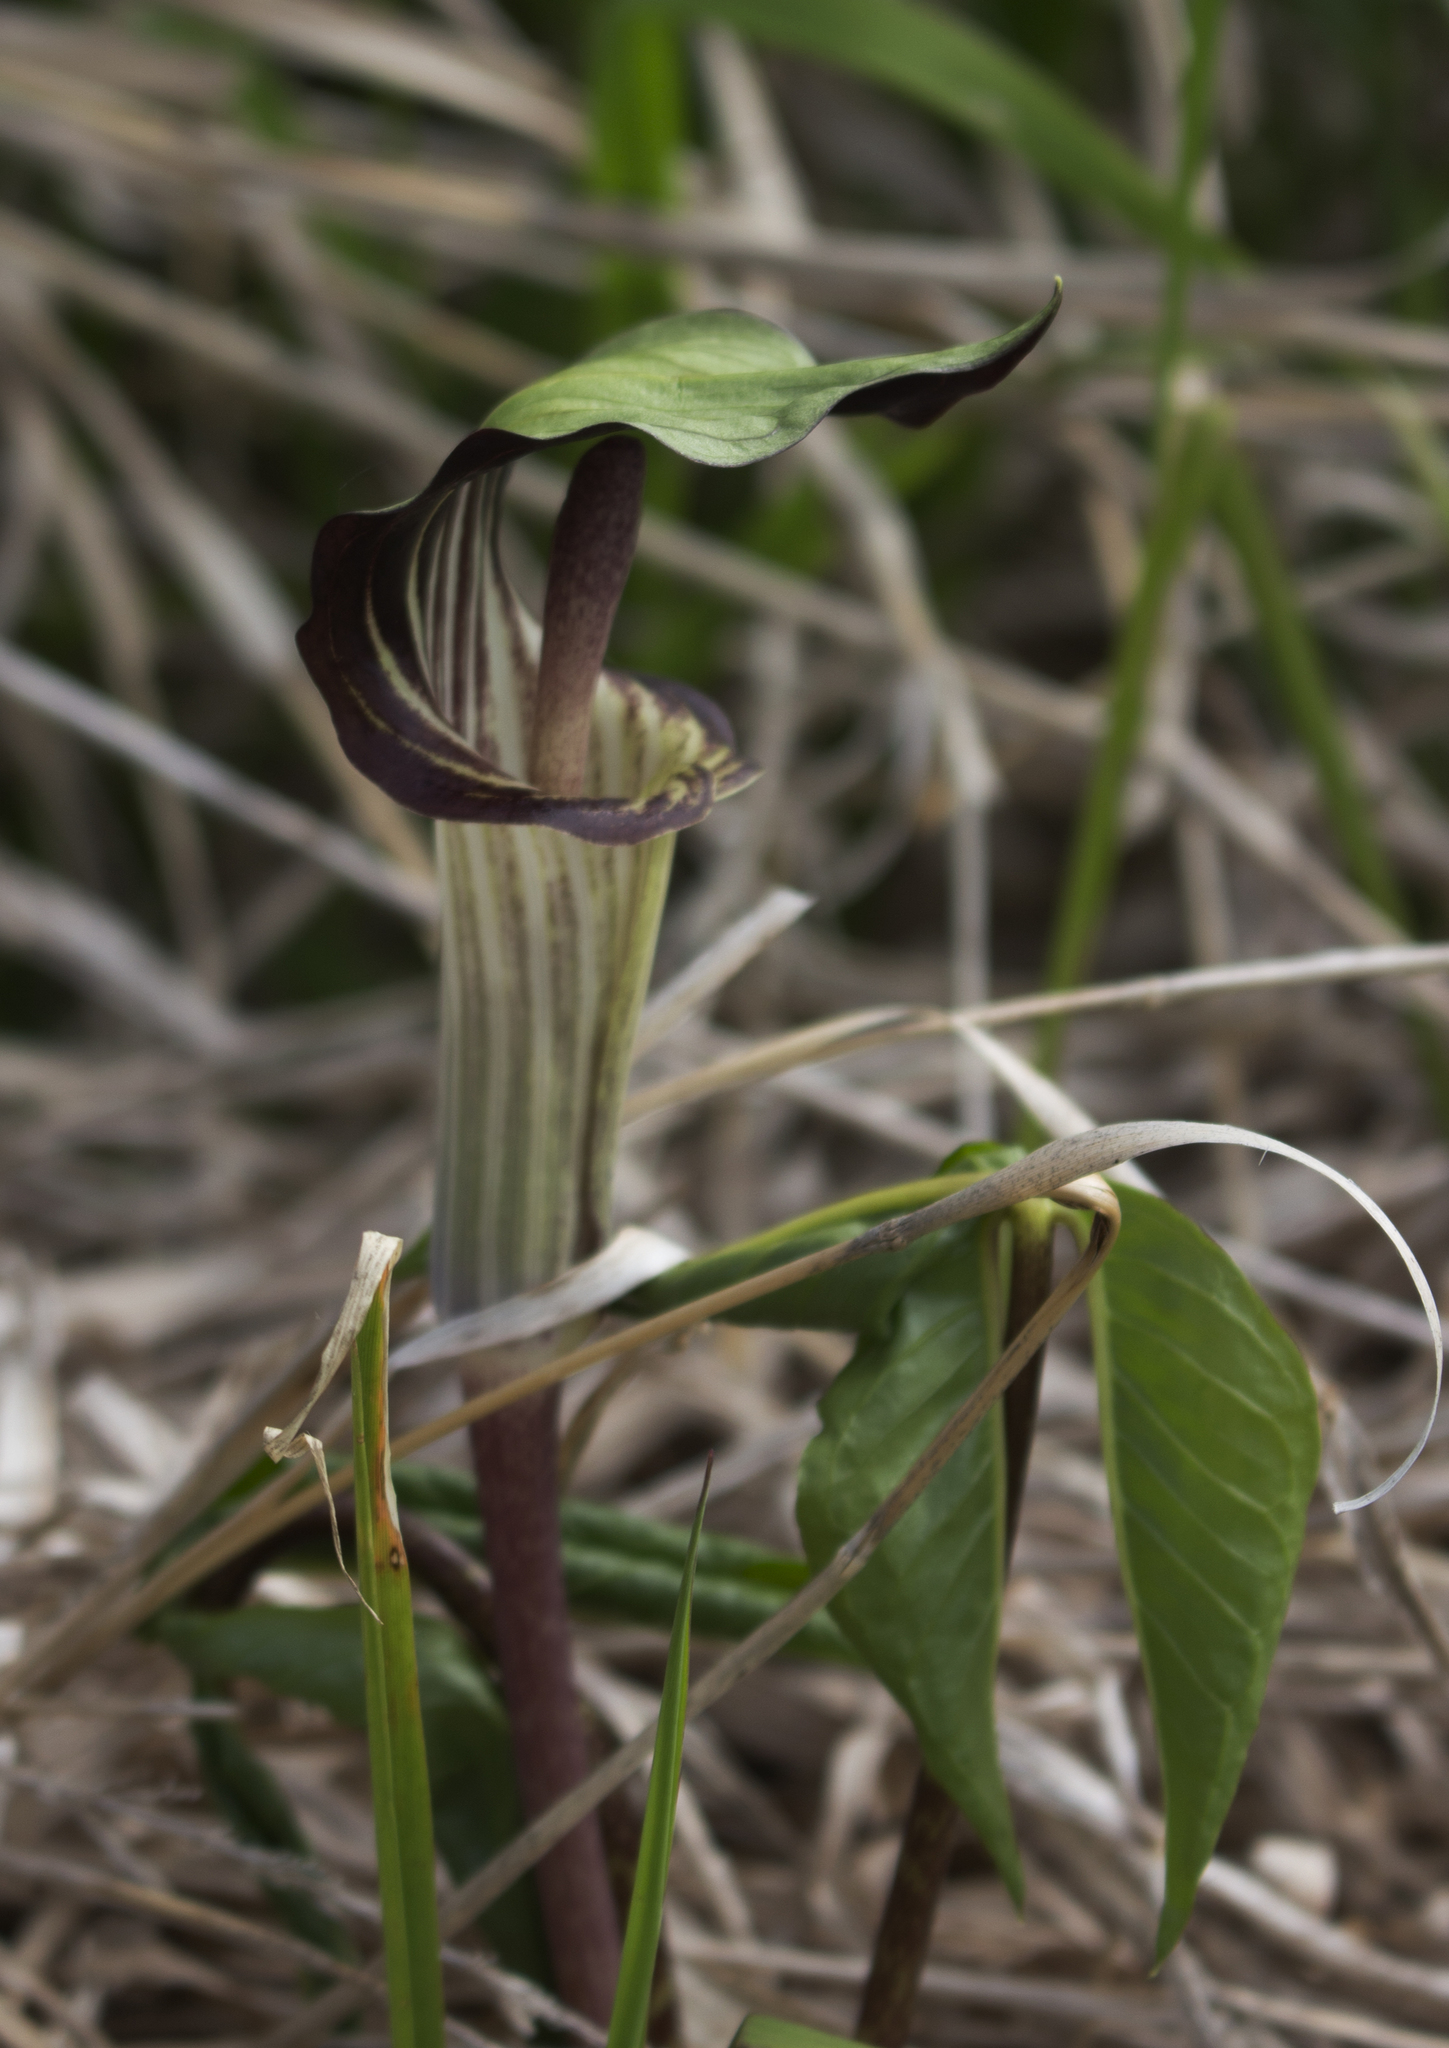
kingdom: Plantae
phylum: Tracheophyta
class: Liliopsida
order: Alismatales
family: Araceae
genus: Arisaema
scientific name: Arisaema triphyllum
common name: Jack-in-the-pulpit
